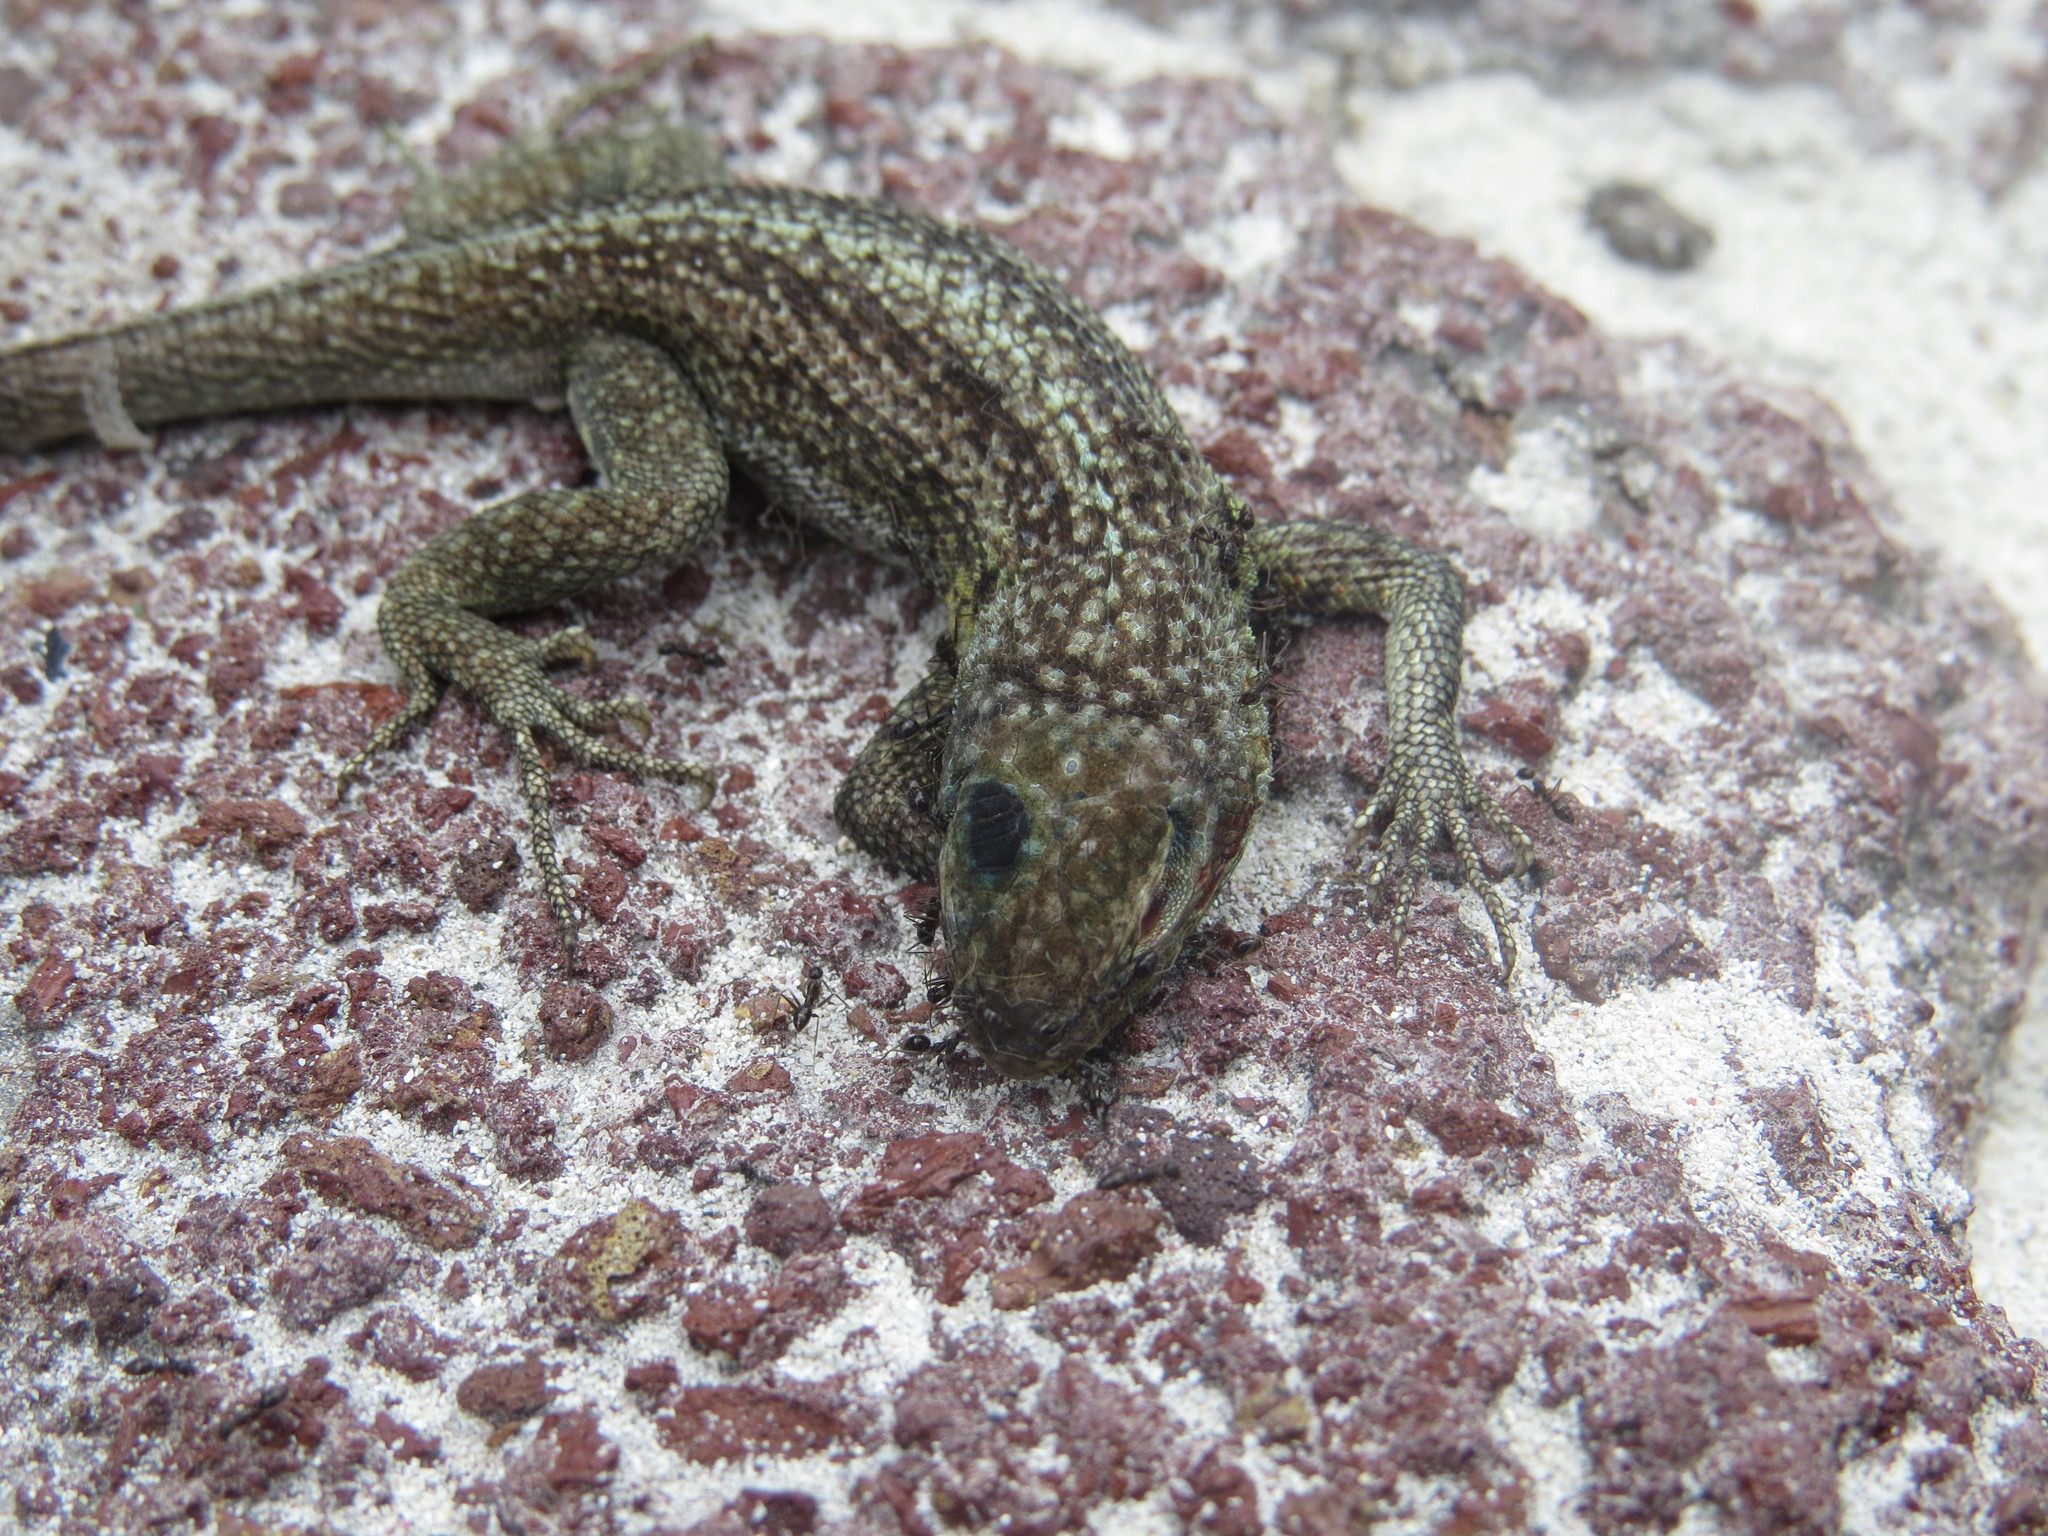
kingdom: Animalia
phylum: Chordata
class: Squamata
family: Tropiduridae
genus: Microlophus
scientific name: Microlophus indefatigabilis
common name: Galapagos lava lizard
